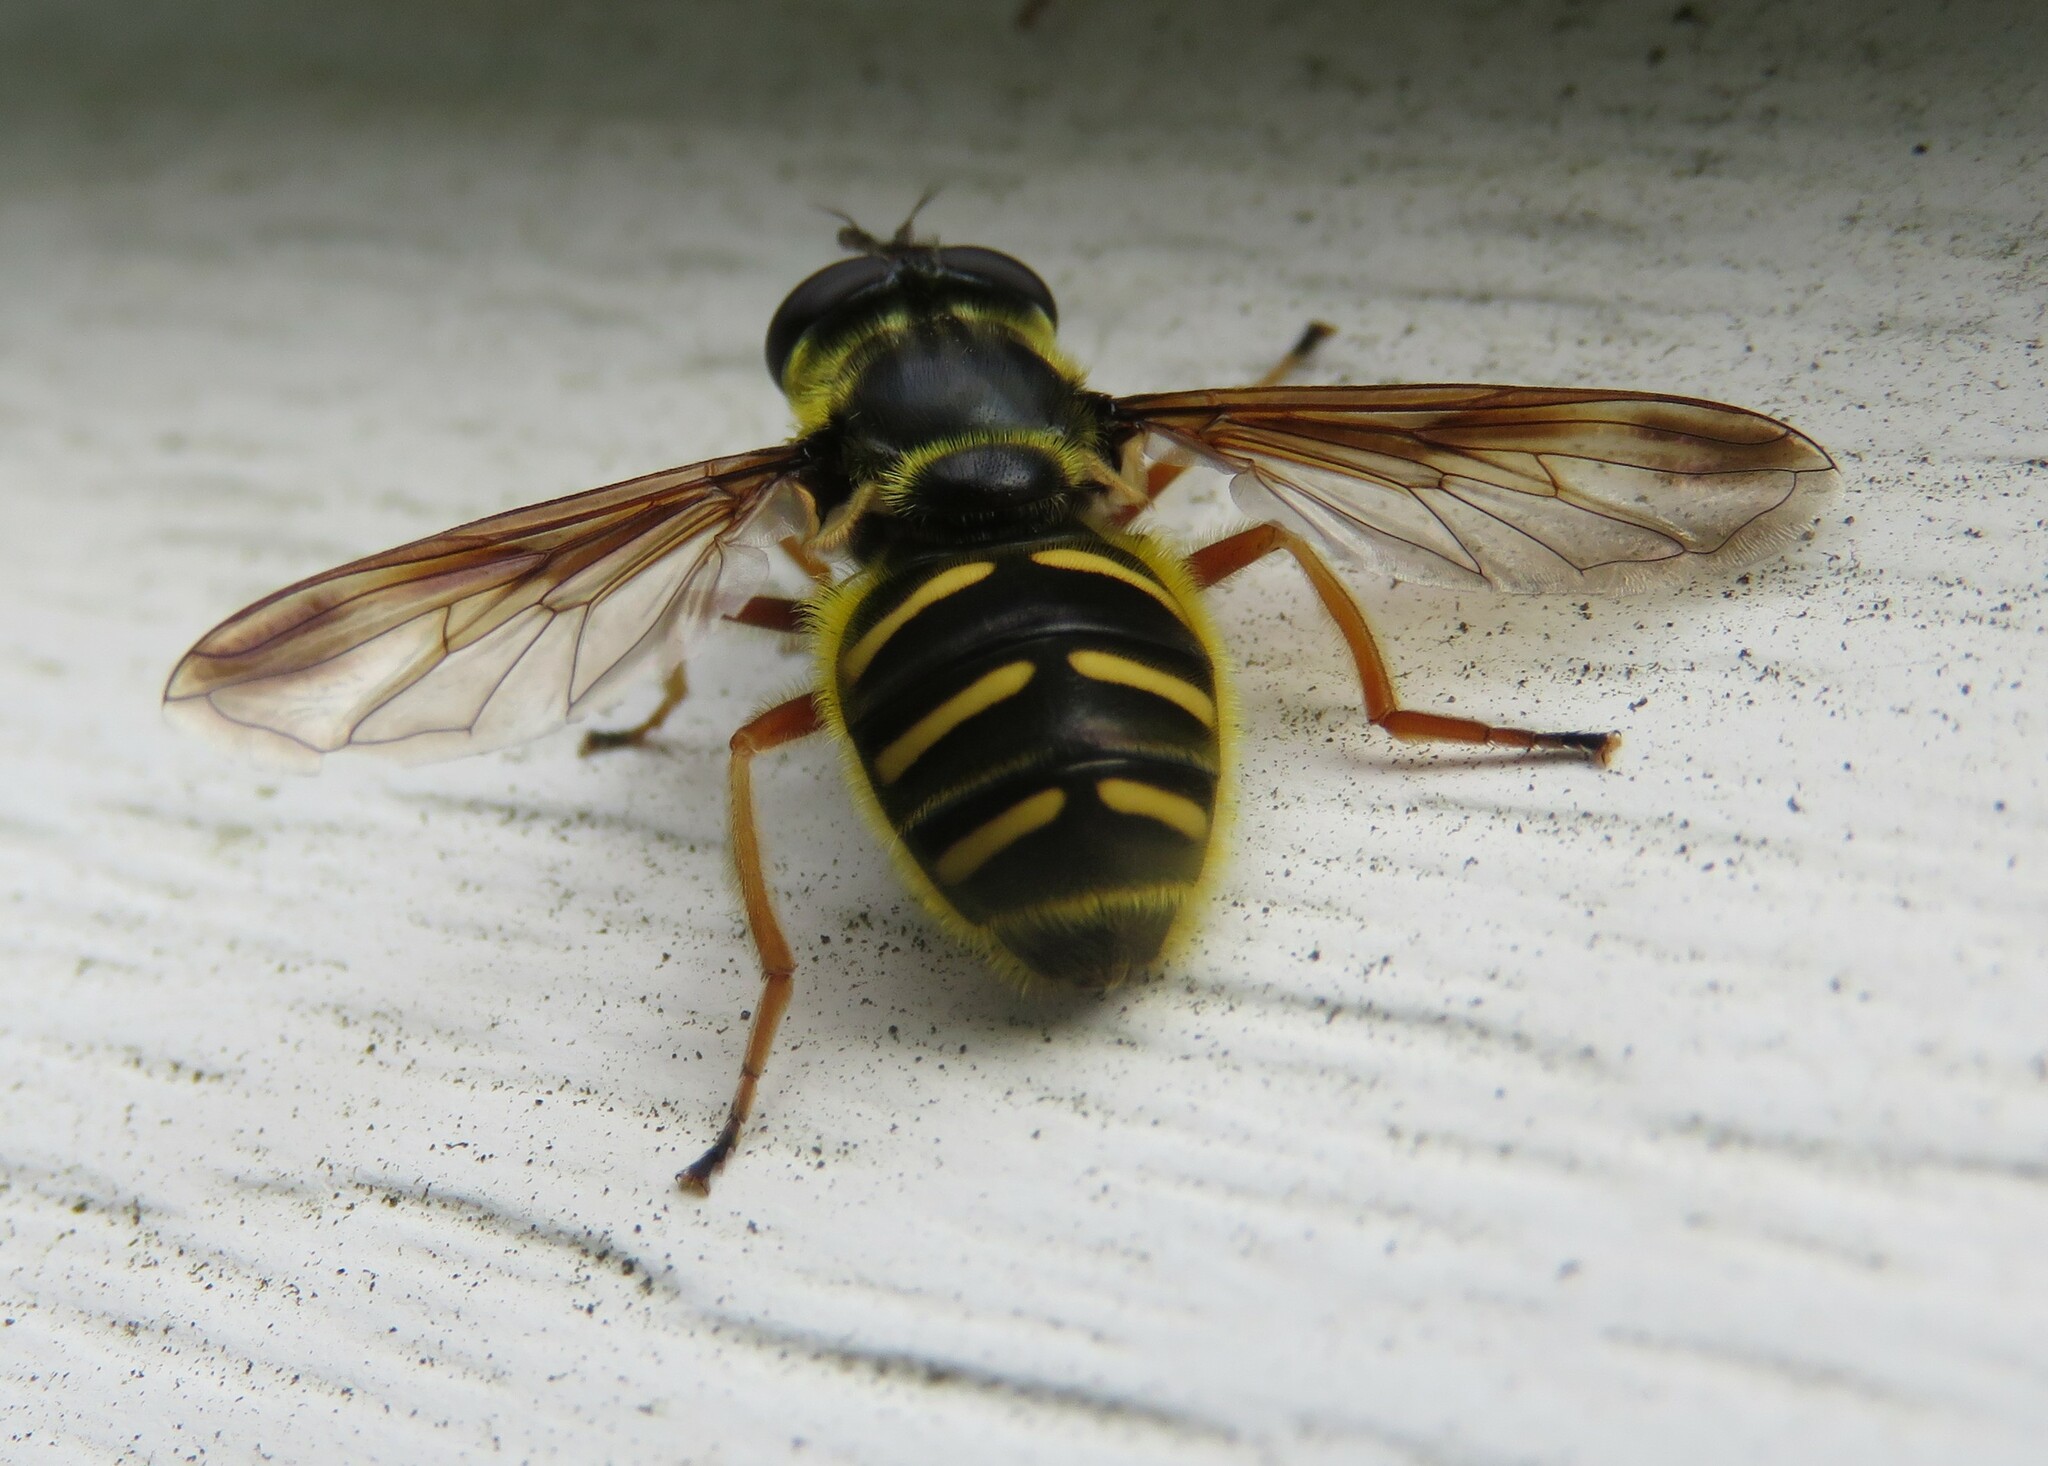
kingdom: Animalia
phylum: Arthropoda
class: Insecta
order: Diptera
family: Syrphidae
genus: Sericomyia
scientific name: Sericomyia chrysotoxoides
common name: Oblique-banded pond fly
